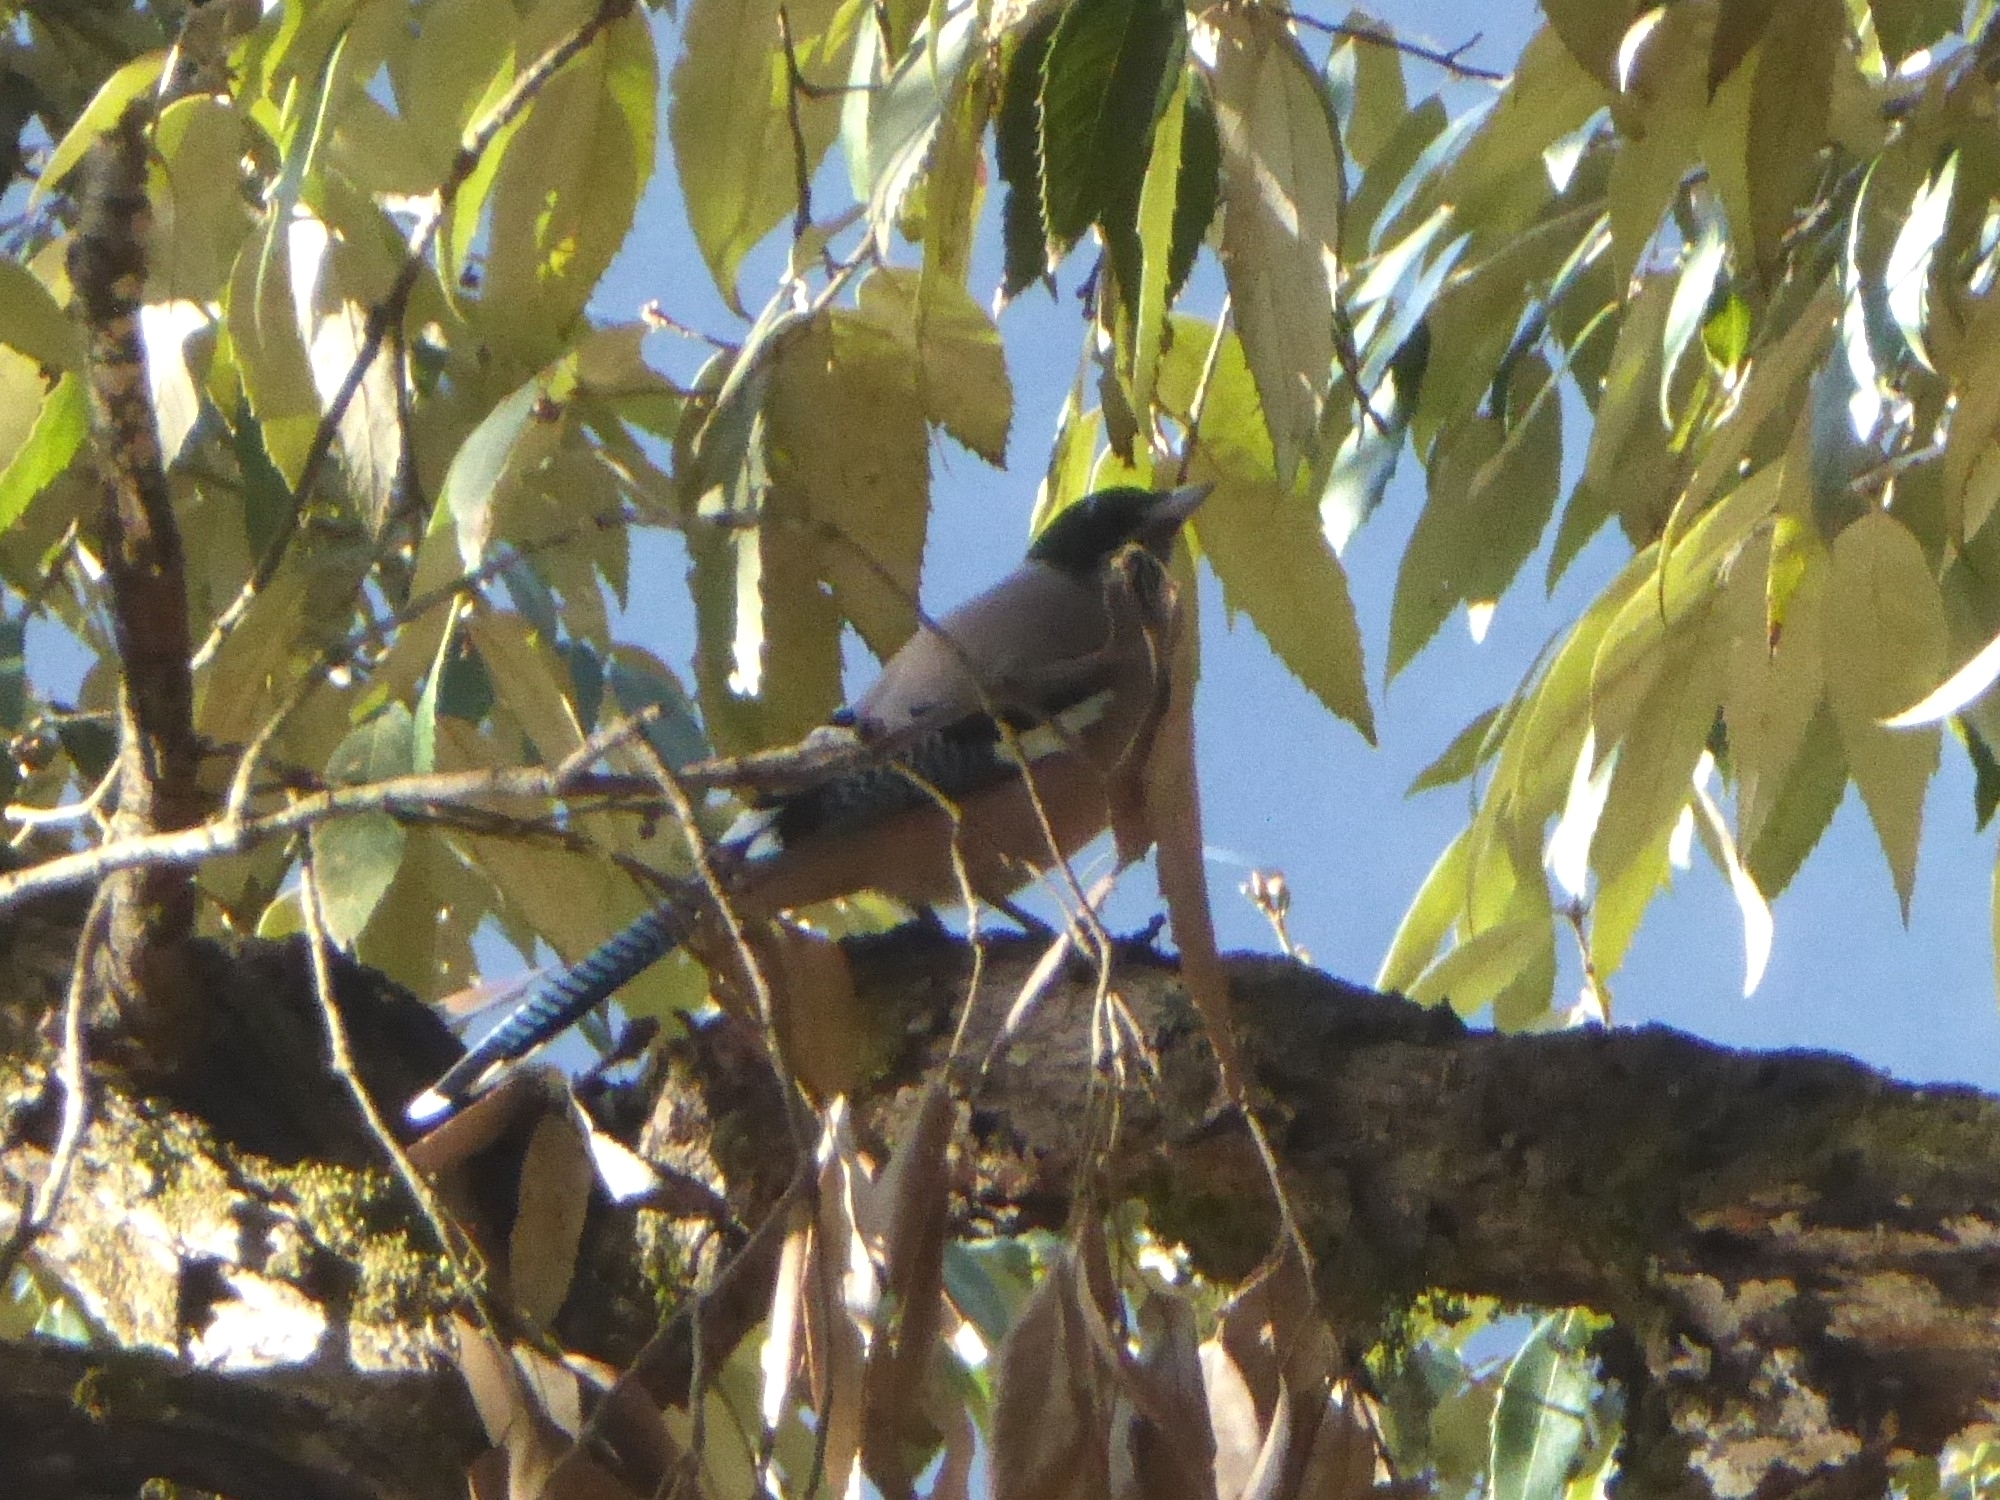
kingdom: Animalia
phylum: Chordata
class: Aves
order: Passeriformes
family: Corvidae
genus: Garrulus
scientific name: Garrulus lanceolatus
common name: Black-headed jay
